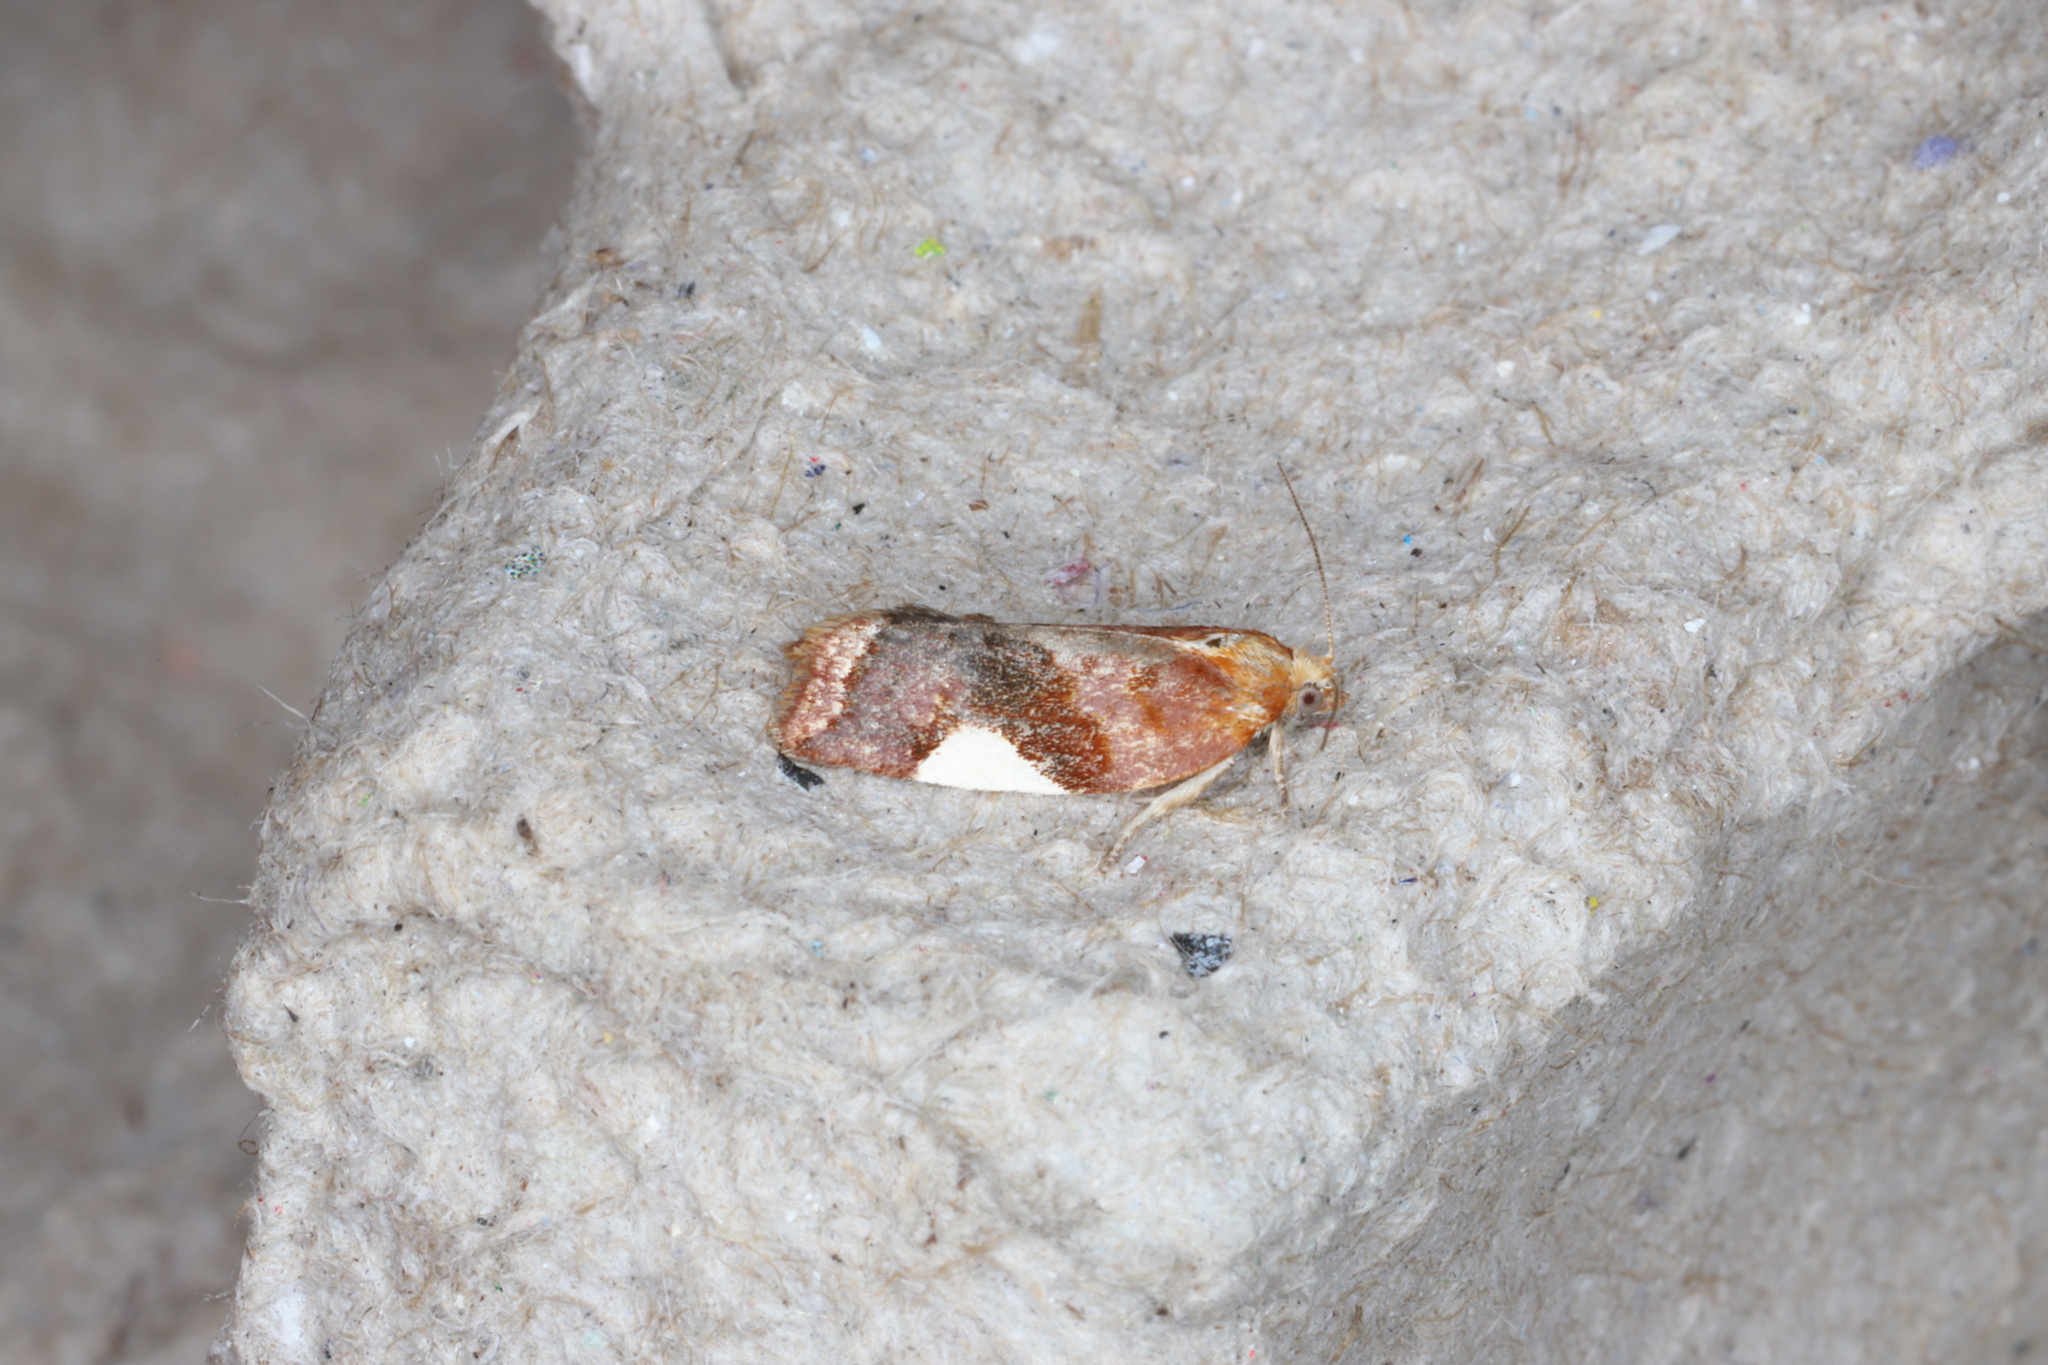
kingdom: Animalia
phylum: Arthropoda
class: Insecta
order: Lepidoptera
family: Tortricidae
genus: Clepsis
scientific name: Clepsis persicana
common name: White triangle tortrix
